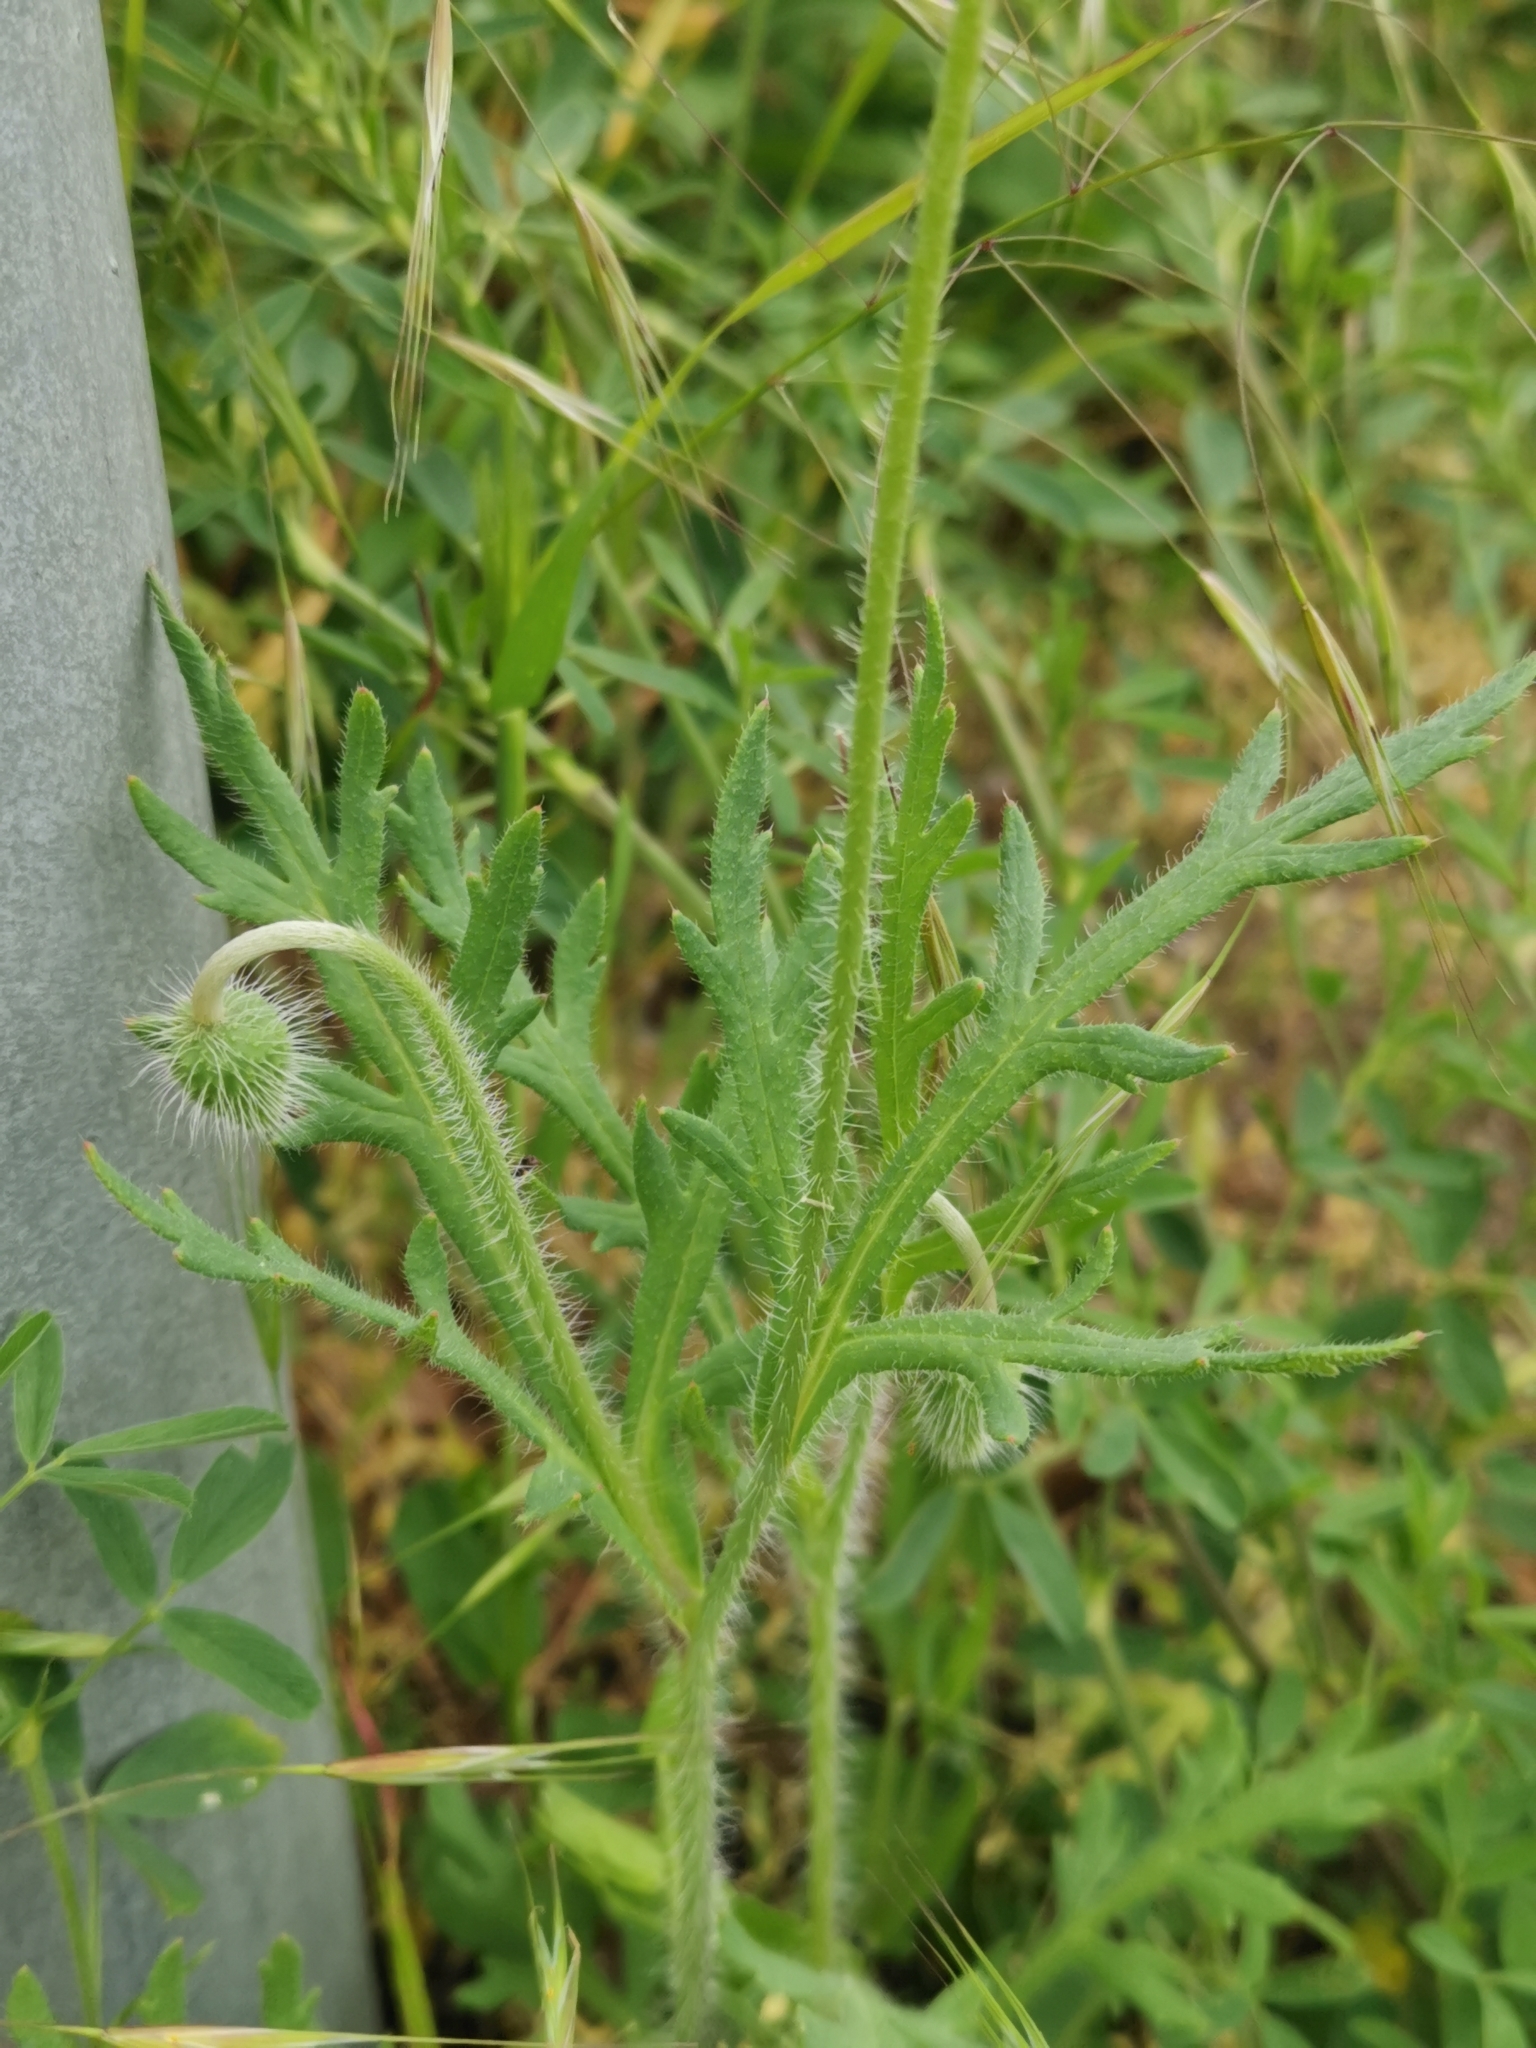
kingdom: Plantae
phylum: Tracheophyta
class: Magnoliopsida
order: Ranunculales
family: Papaveraceae
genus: Papaver
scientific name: Papaver dubium
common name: Long-headed poppy
